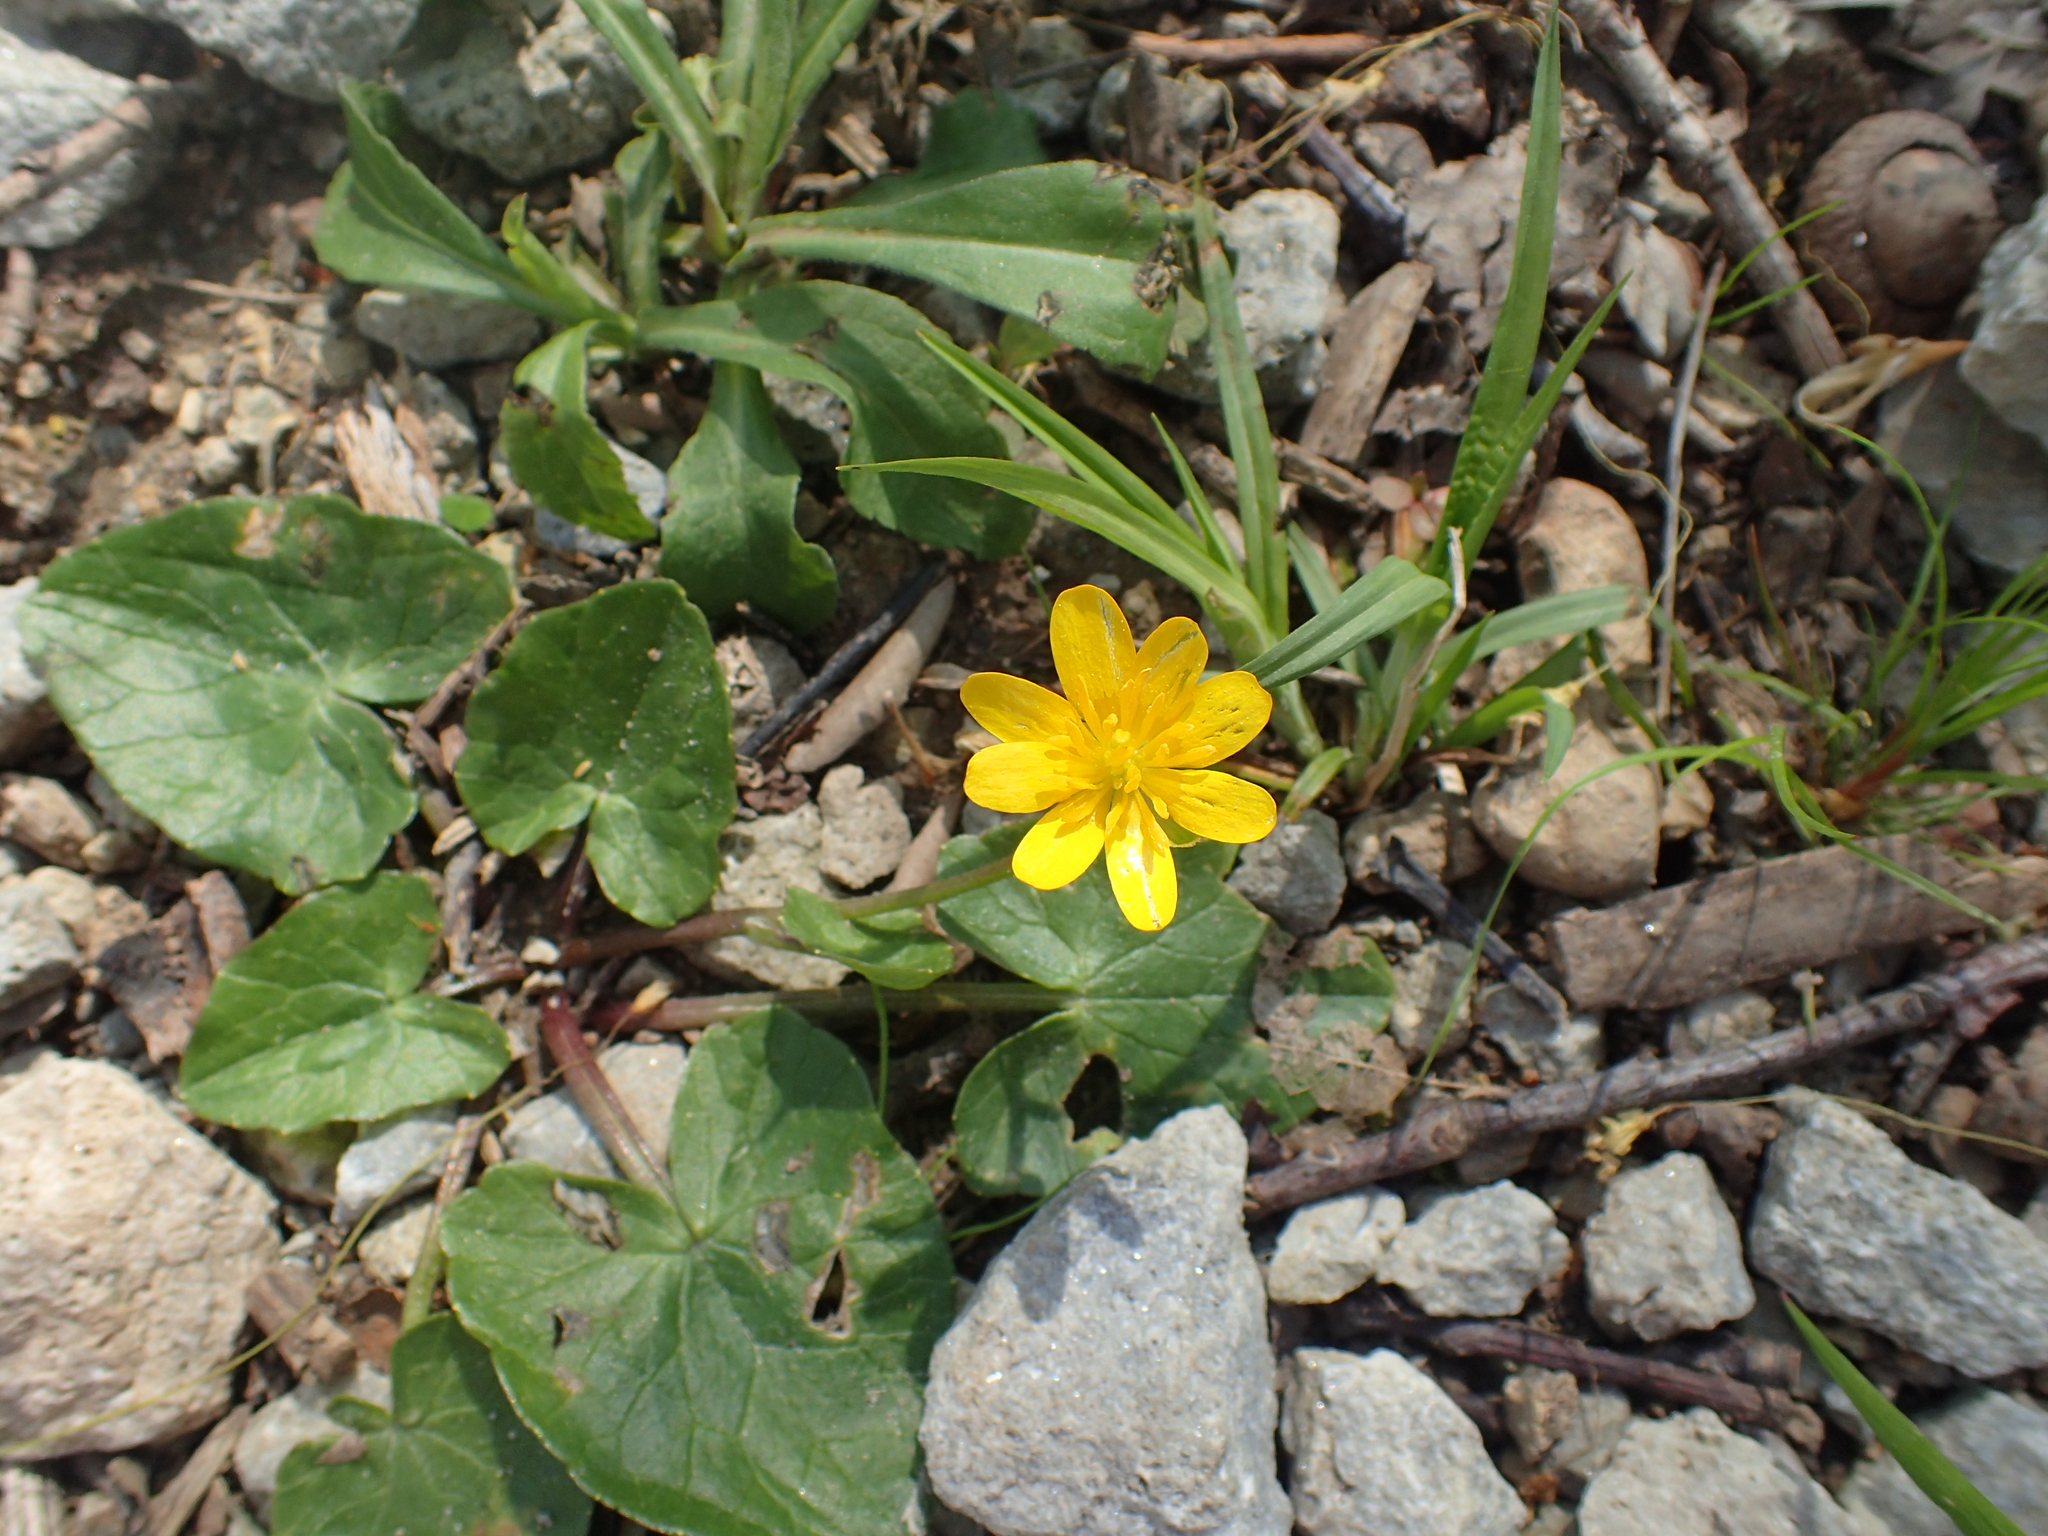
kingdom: Plantae
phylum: Tracheophyta
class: Magnoliopsida
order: Ranunculales
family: Ranunculaceae
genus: Ficaria
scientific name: Ficaria verna
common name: Lesser celandine
